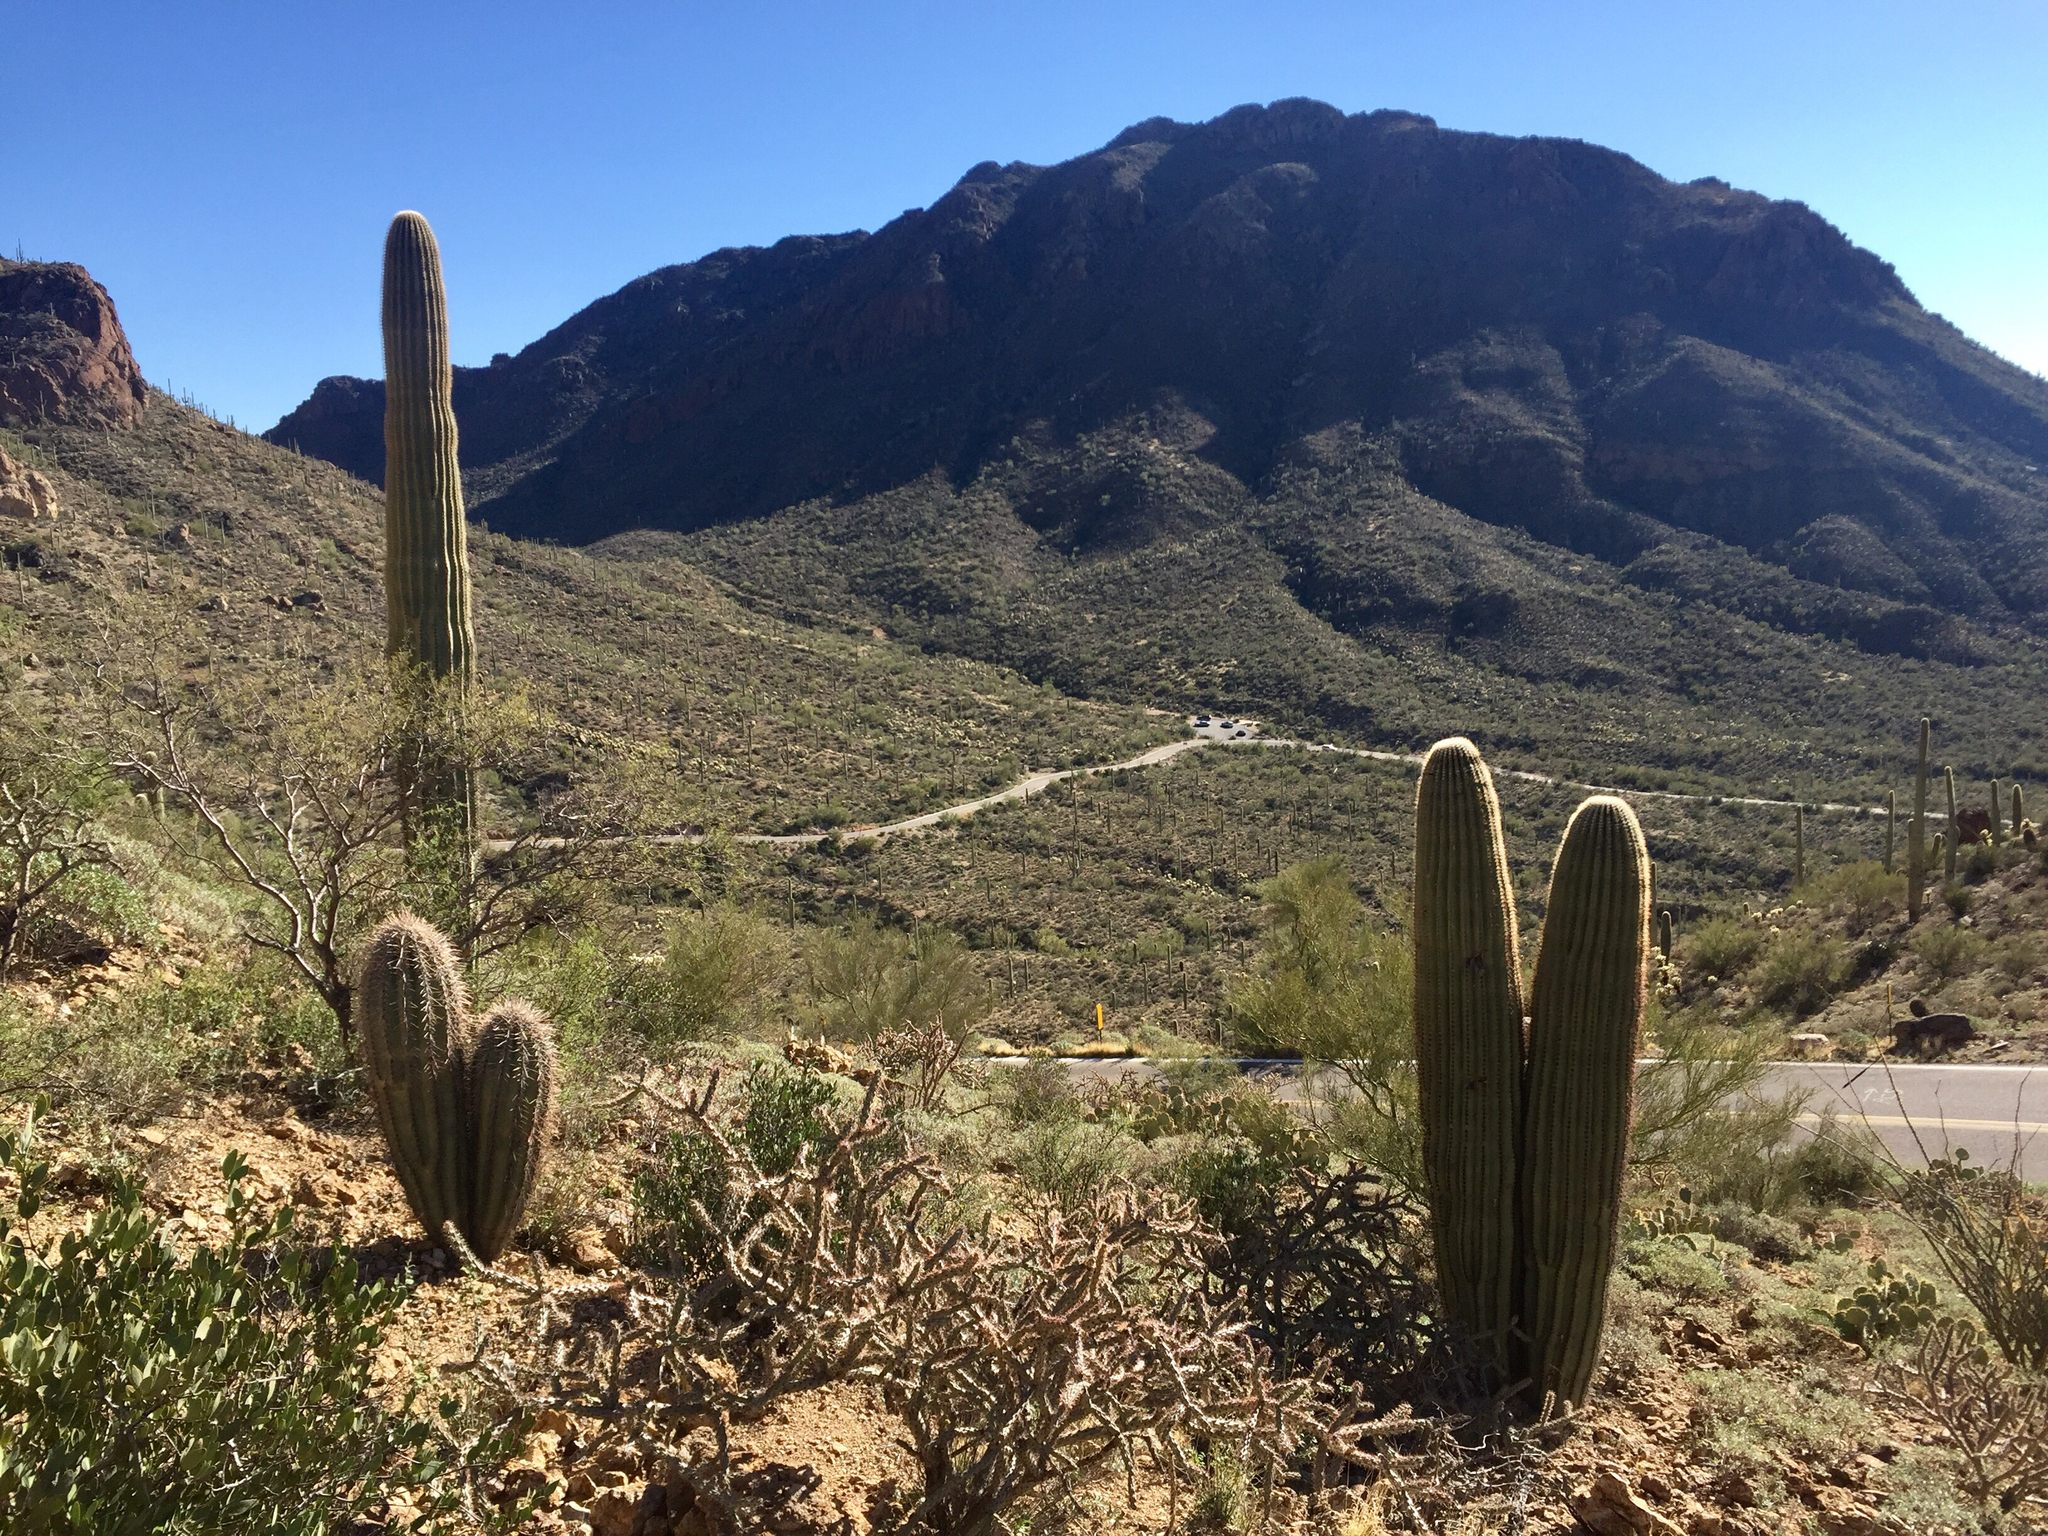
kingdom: Plantae
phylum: Tracheophyta
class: Magnoliopsida
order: Caryophyllales
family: Cactaceae
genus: Carnegiea
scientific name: Carnegiea gigantea
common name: Saguaro
